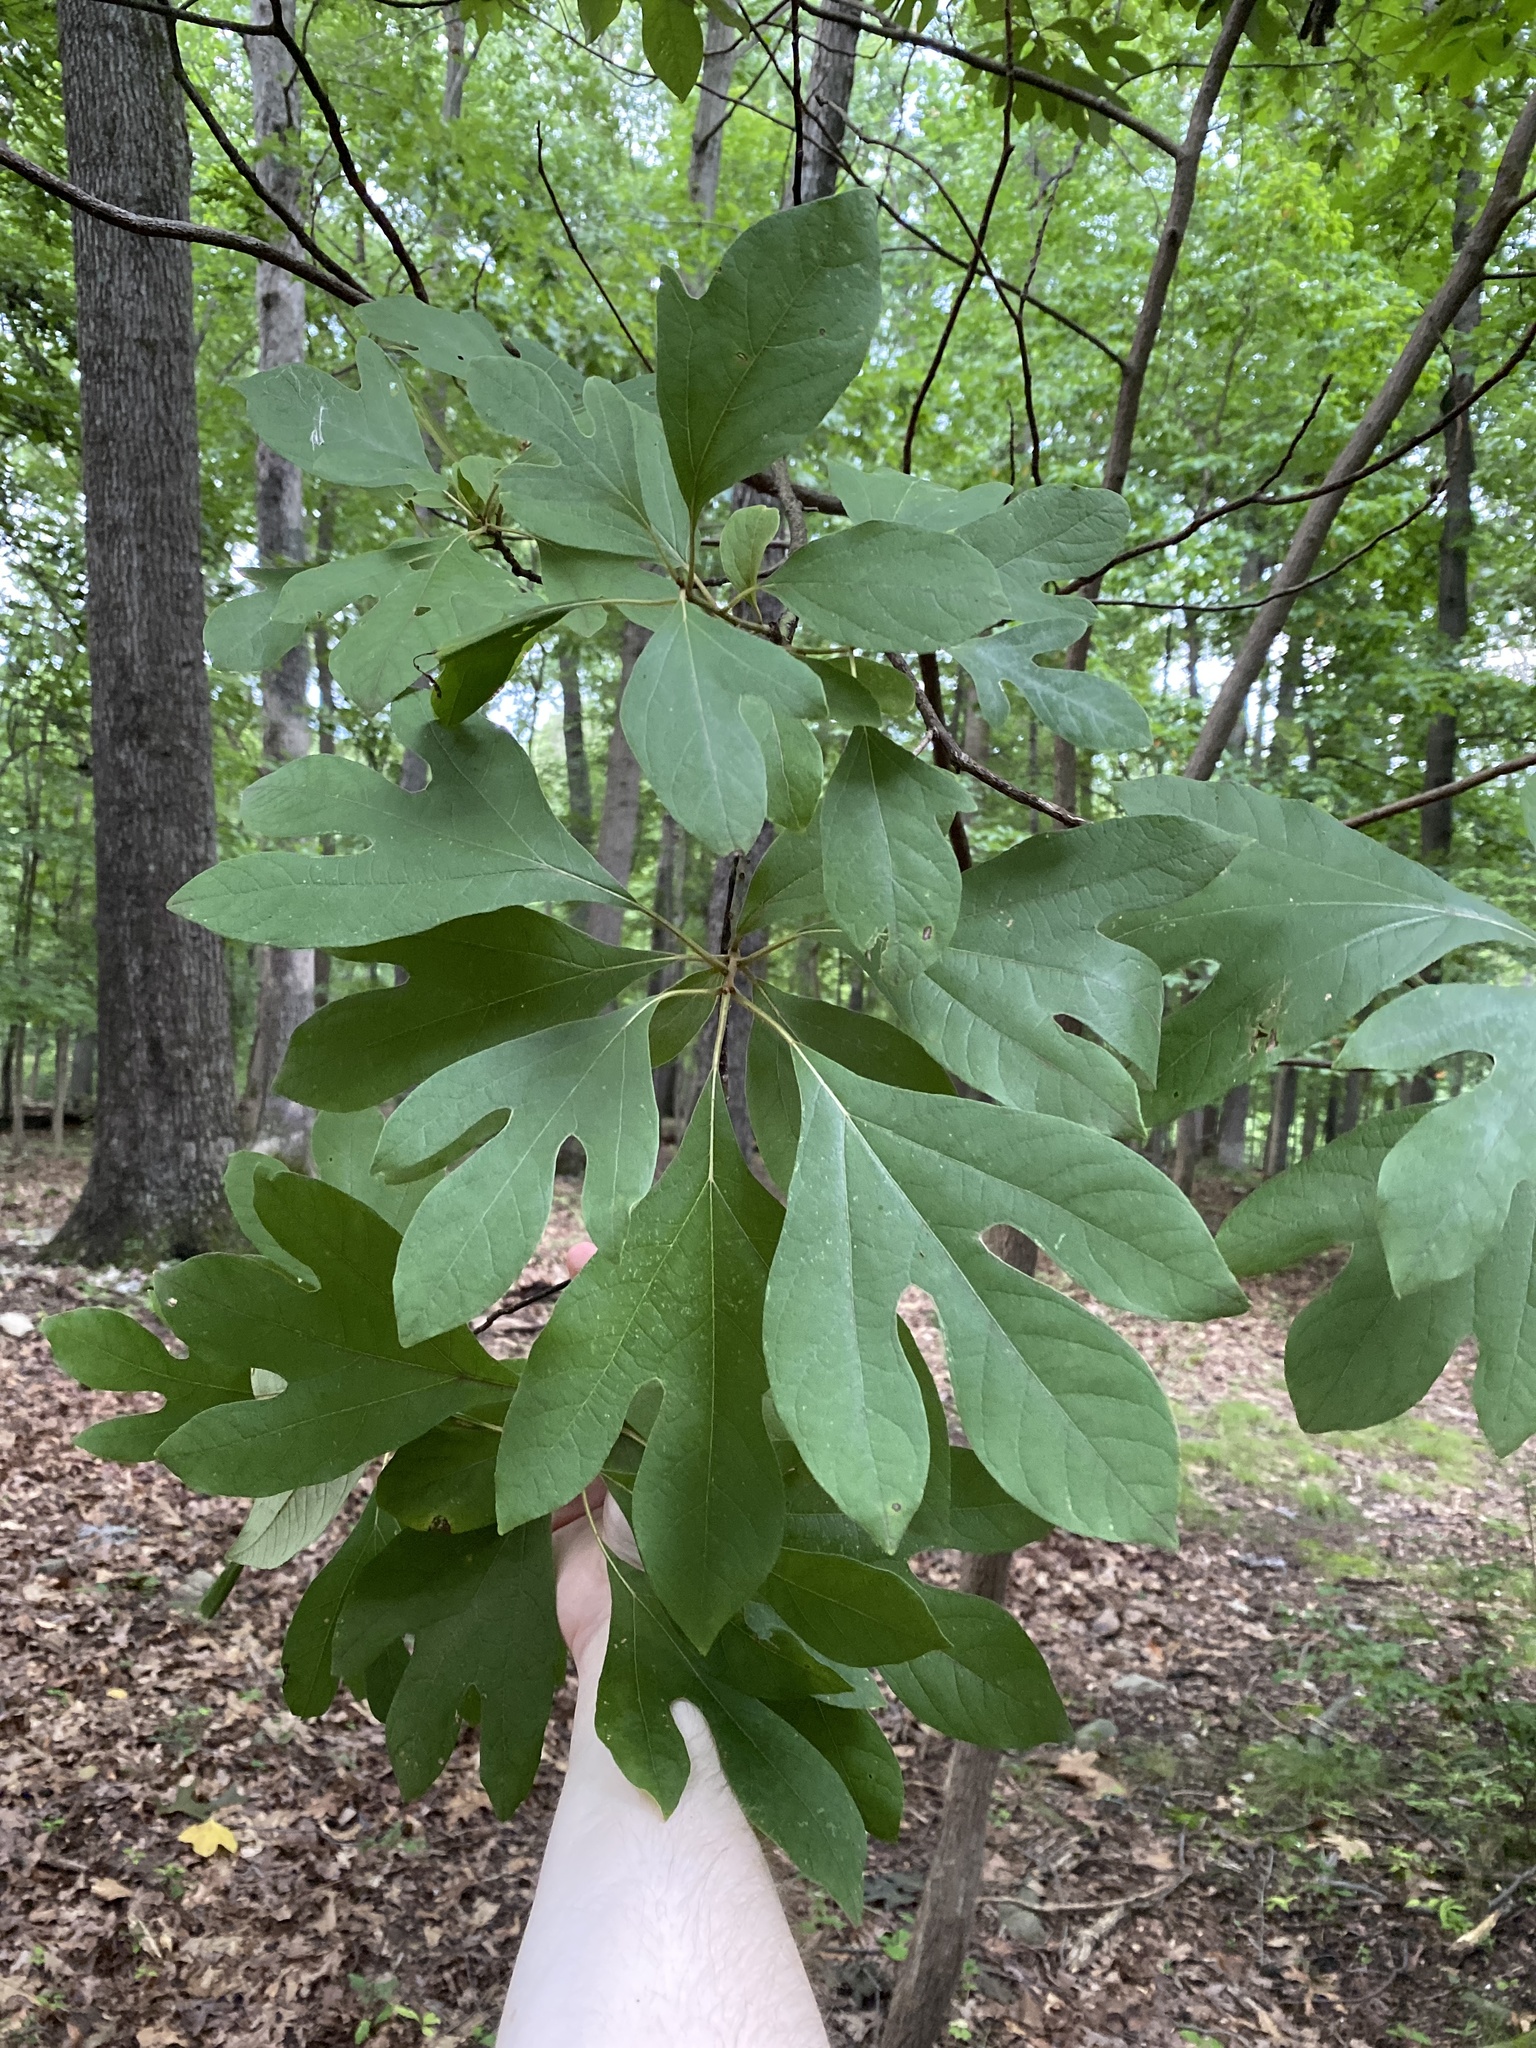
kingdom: Plantae
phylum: Tracheophyta
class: Magnoliopsida
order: Laurales
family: Lauraceae
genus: Sassafras
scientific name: Sassafras albidum
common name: Sassafras
